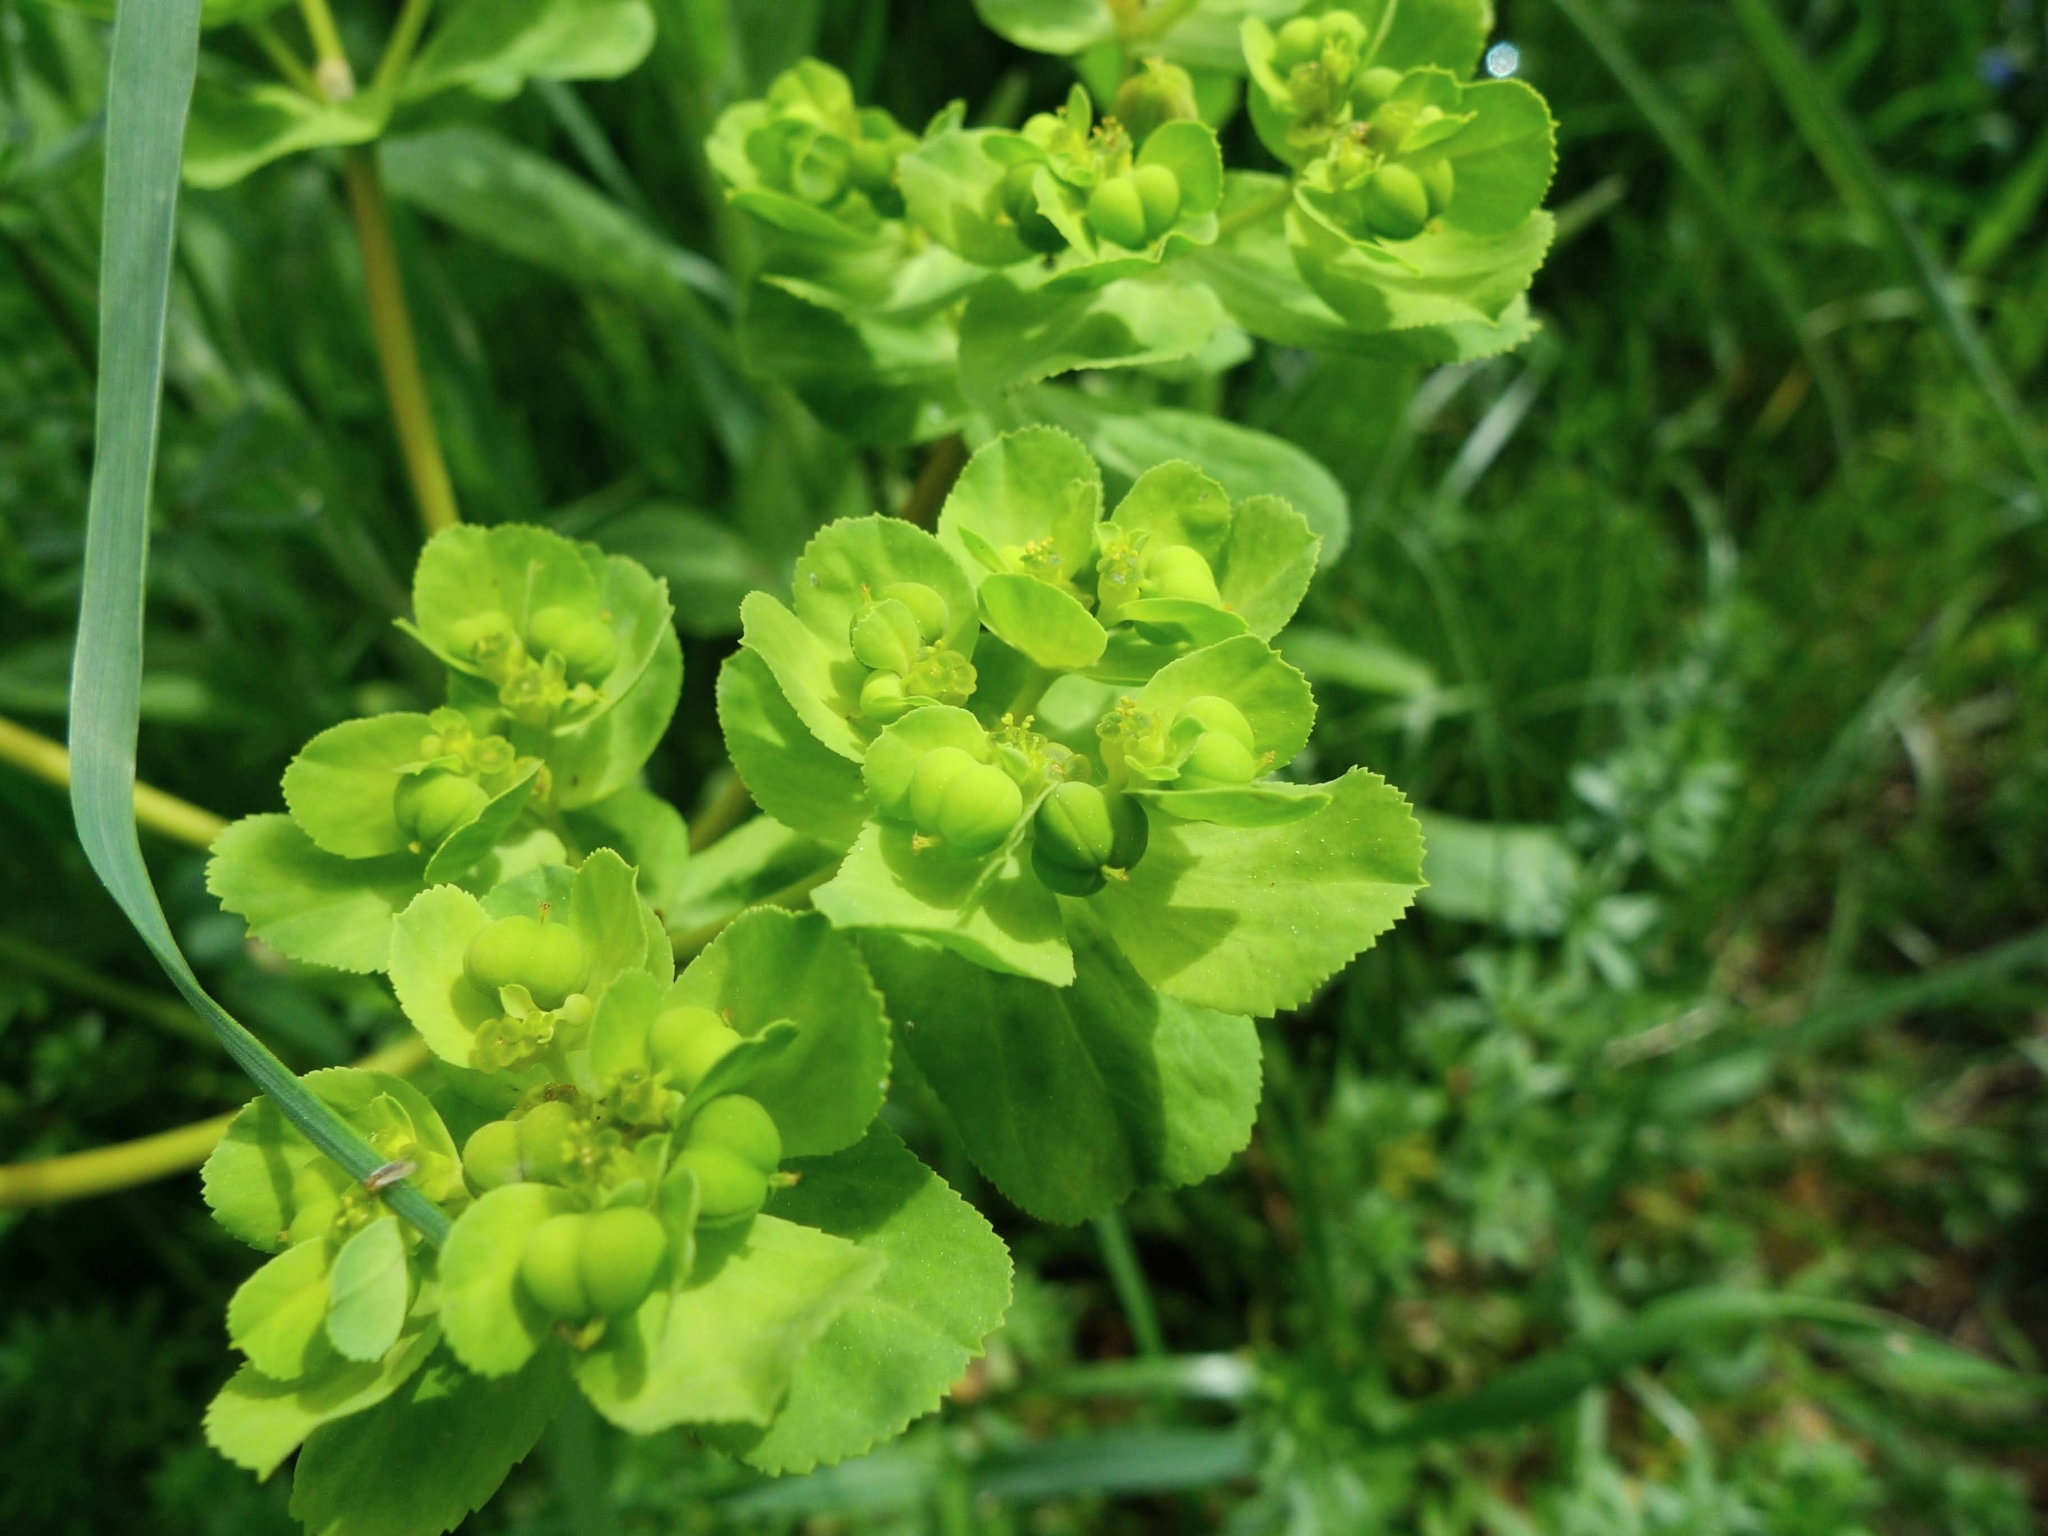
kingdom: Plantae
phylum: Tracheophyta
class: Magnoliopsida
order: Malpighiales
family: Euphorbiaceae
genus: Euphorbia
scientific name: Euphorbia helioscopia
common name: Sun spurge
